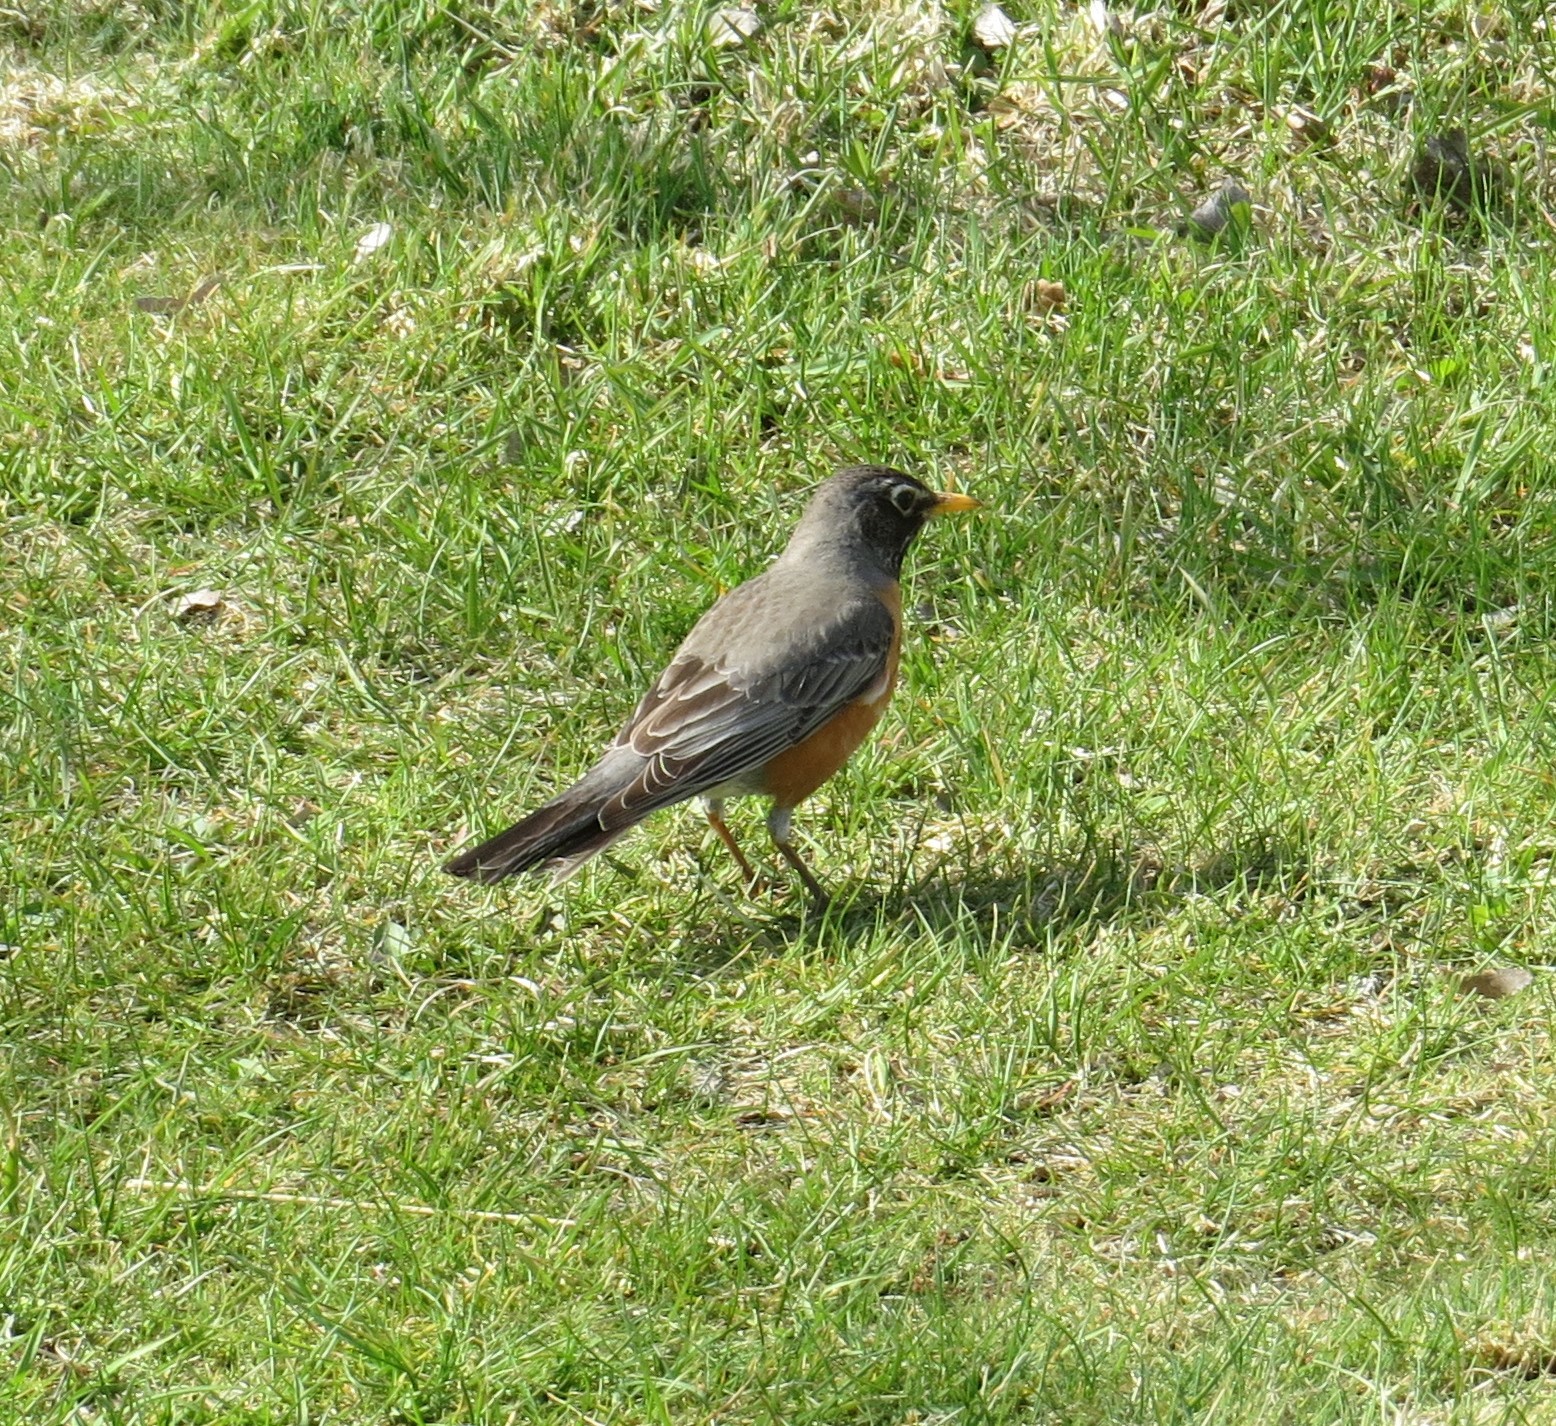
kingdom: Animalia
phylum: Chordata
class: Aves
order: Passeriformes
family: Turdidae
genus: Turdus
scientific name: Turdus migratorius
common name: American robin
